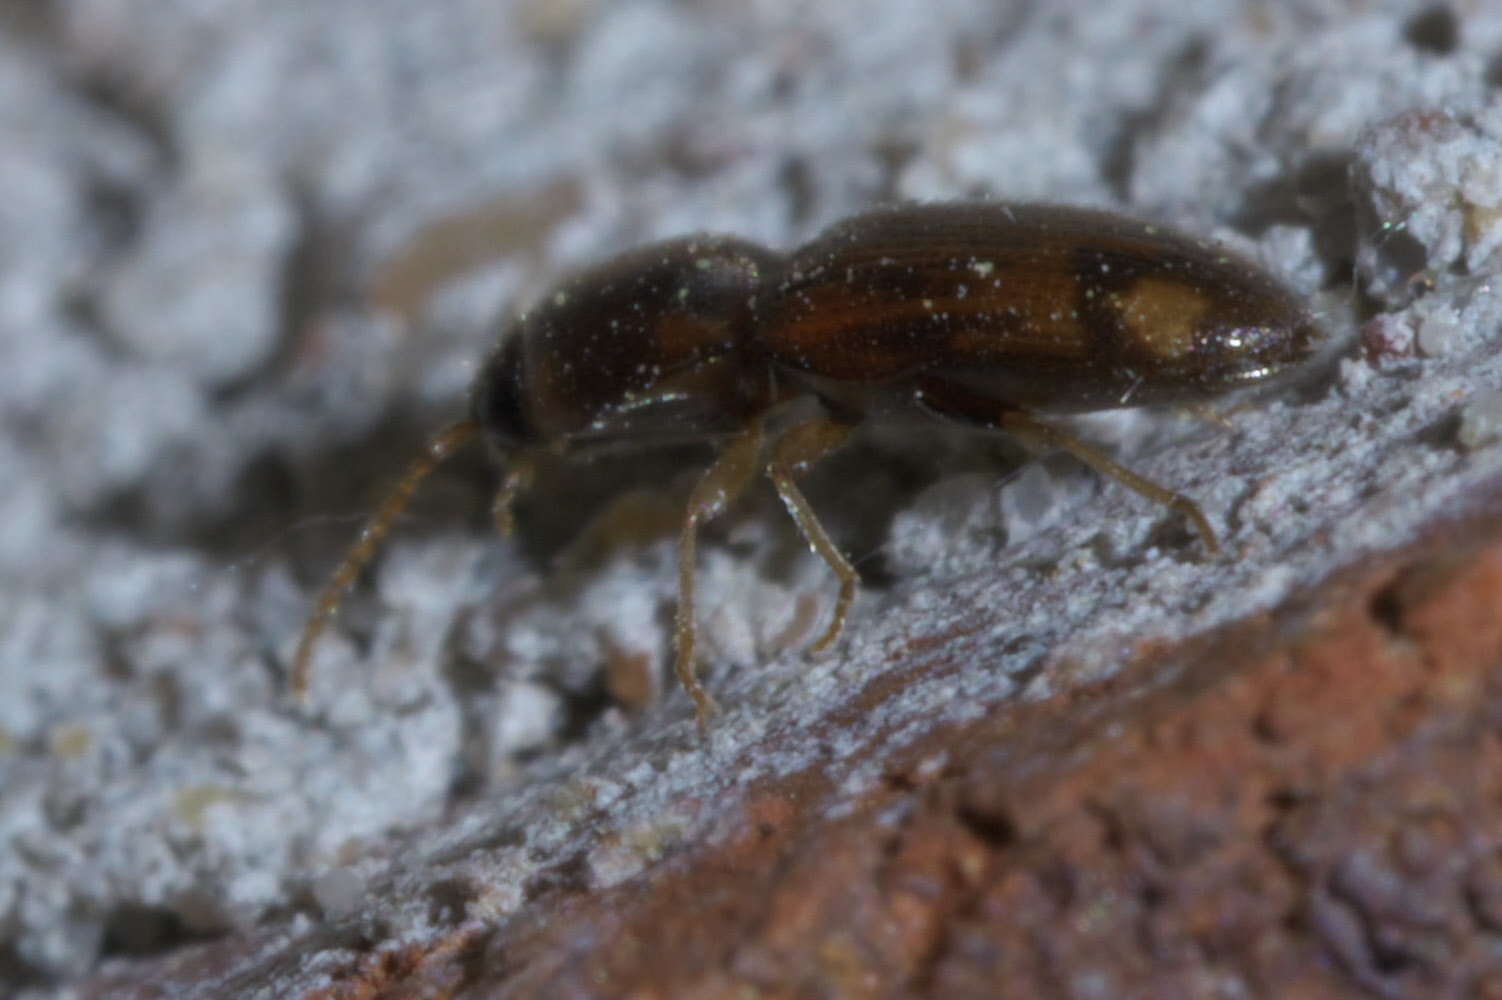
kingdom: Animalia
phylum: Arthropoda
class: Insecta
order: Coleoptera
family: Elateridae
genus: Monocrepidius
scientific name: Monocrepidius bellus
